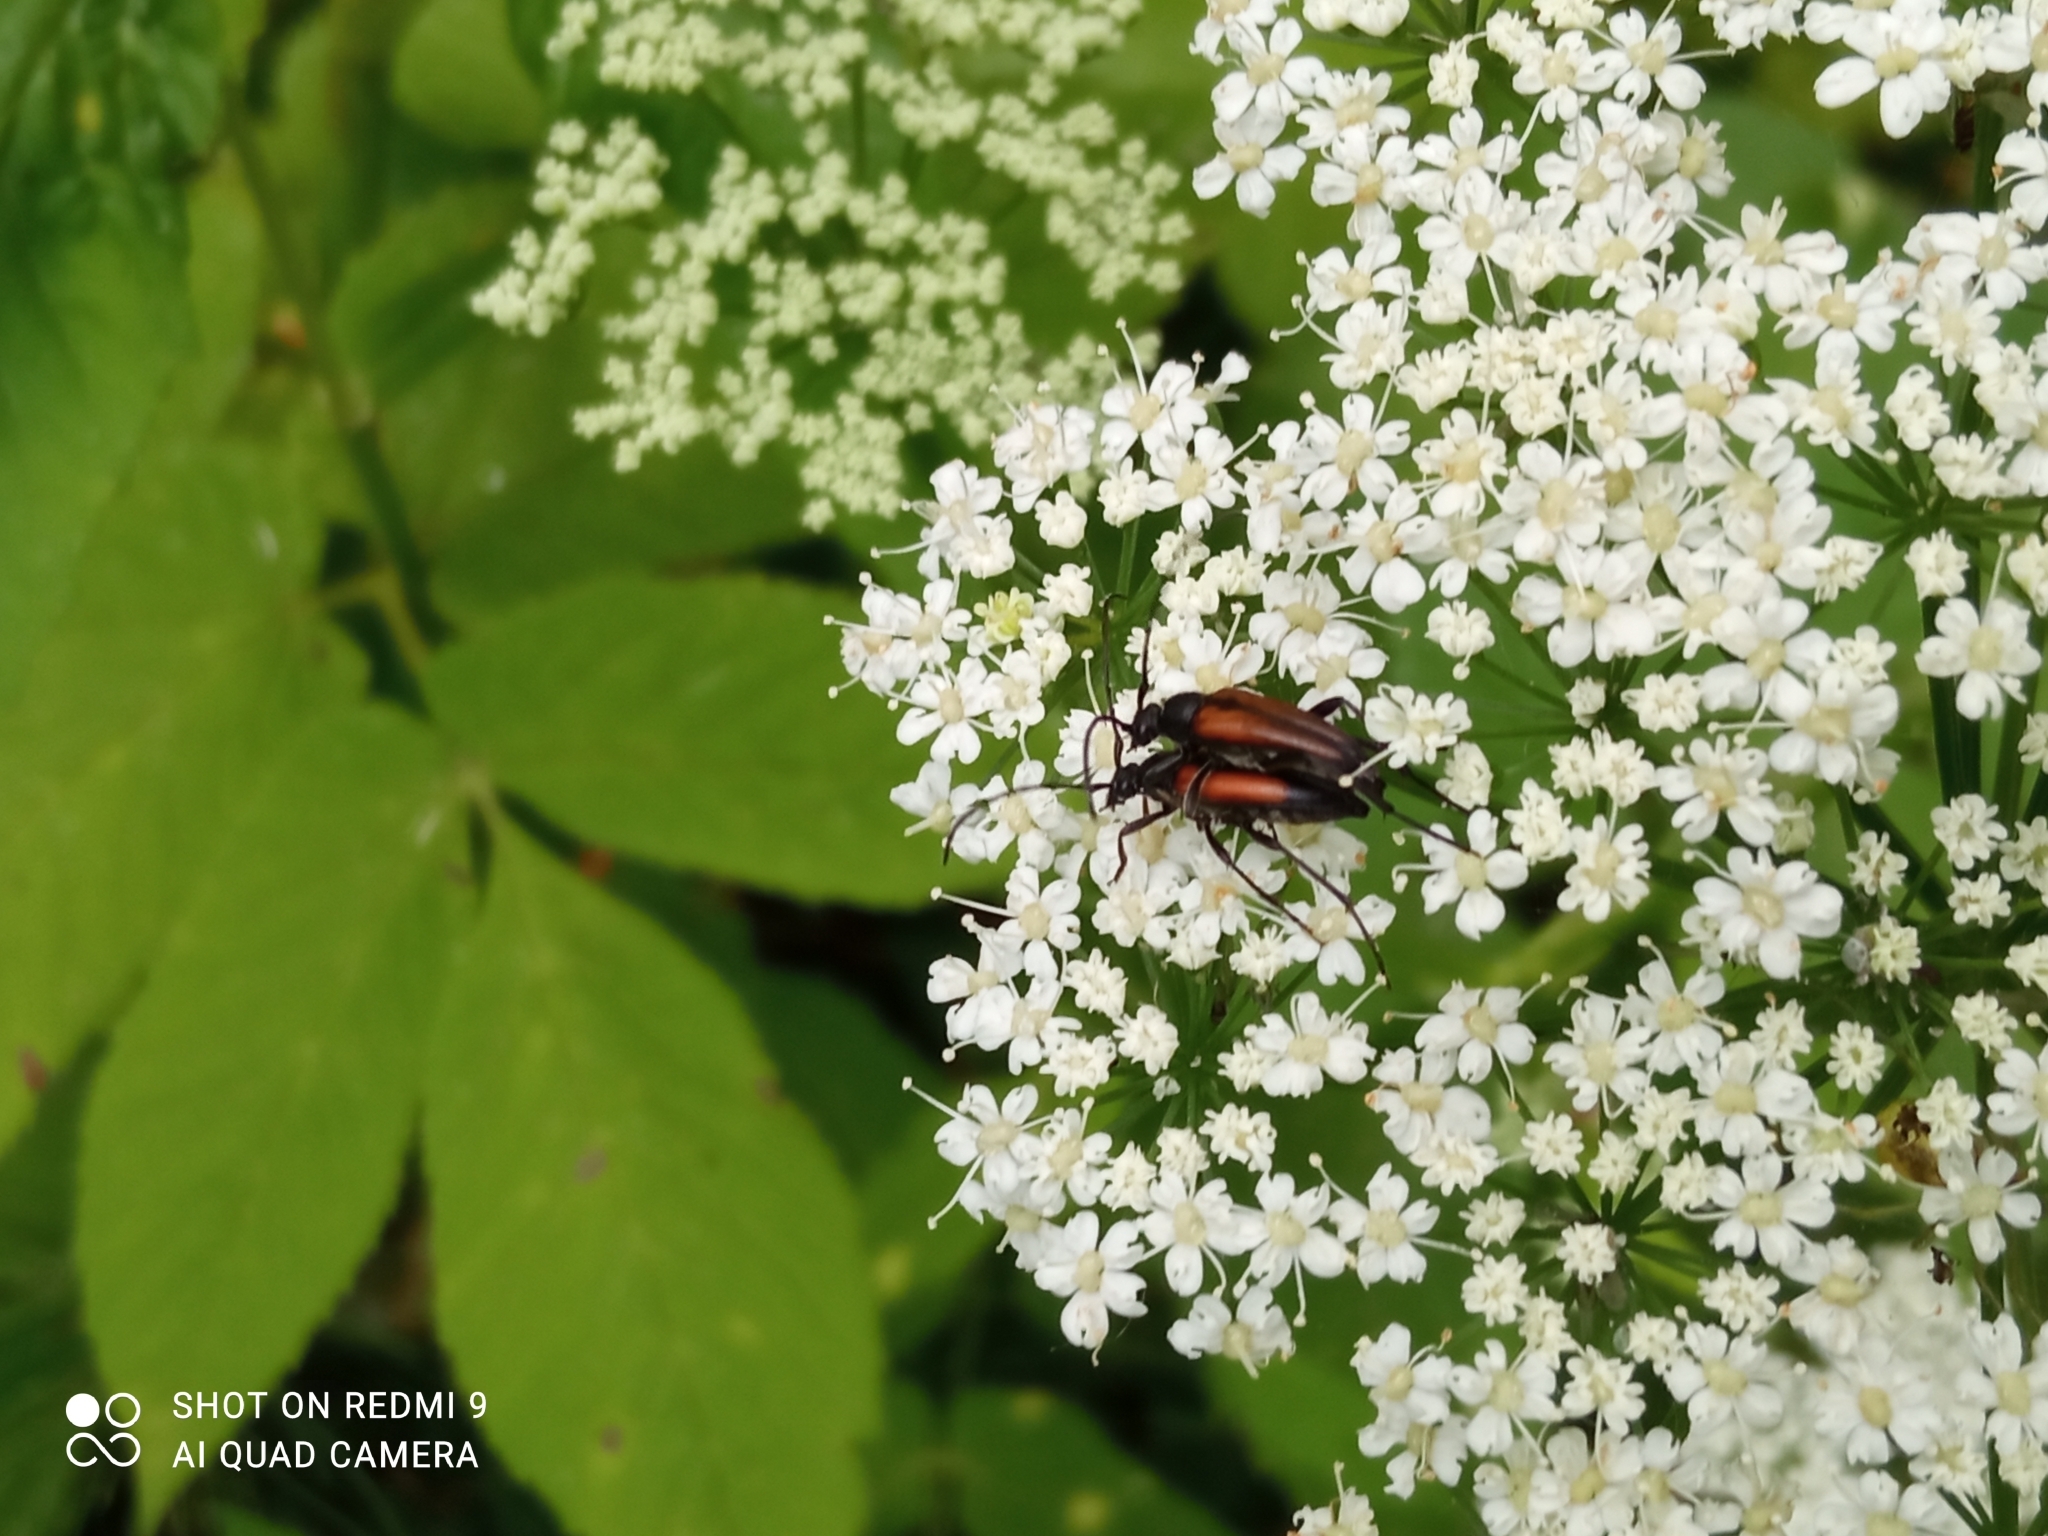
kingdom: Animalia
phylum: Arthropoda
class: Insecta
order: Coleoptera
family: Cerambycidae
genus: Stenurella
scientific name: Stenurella melanura
